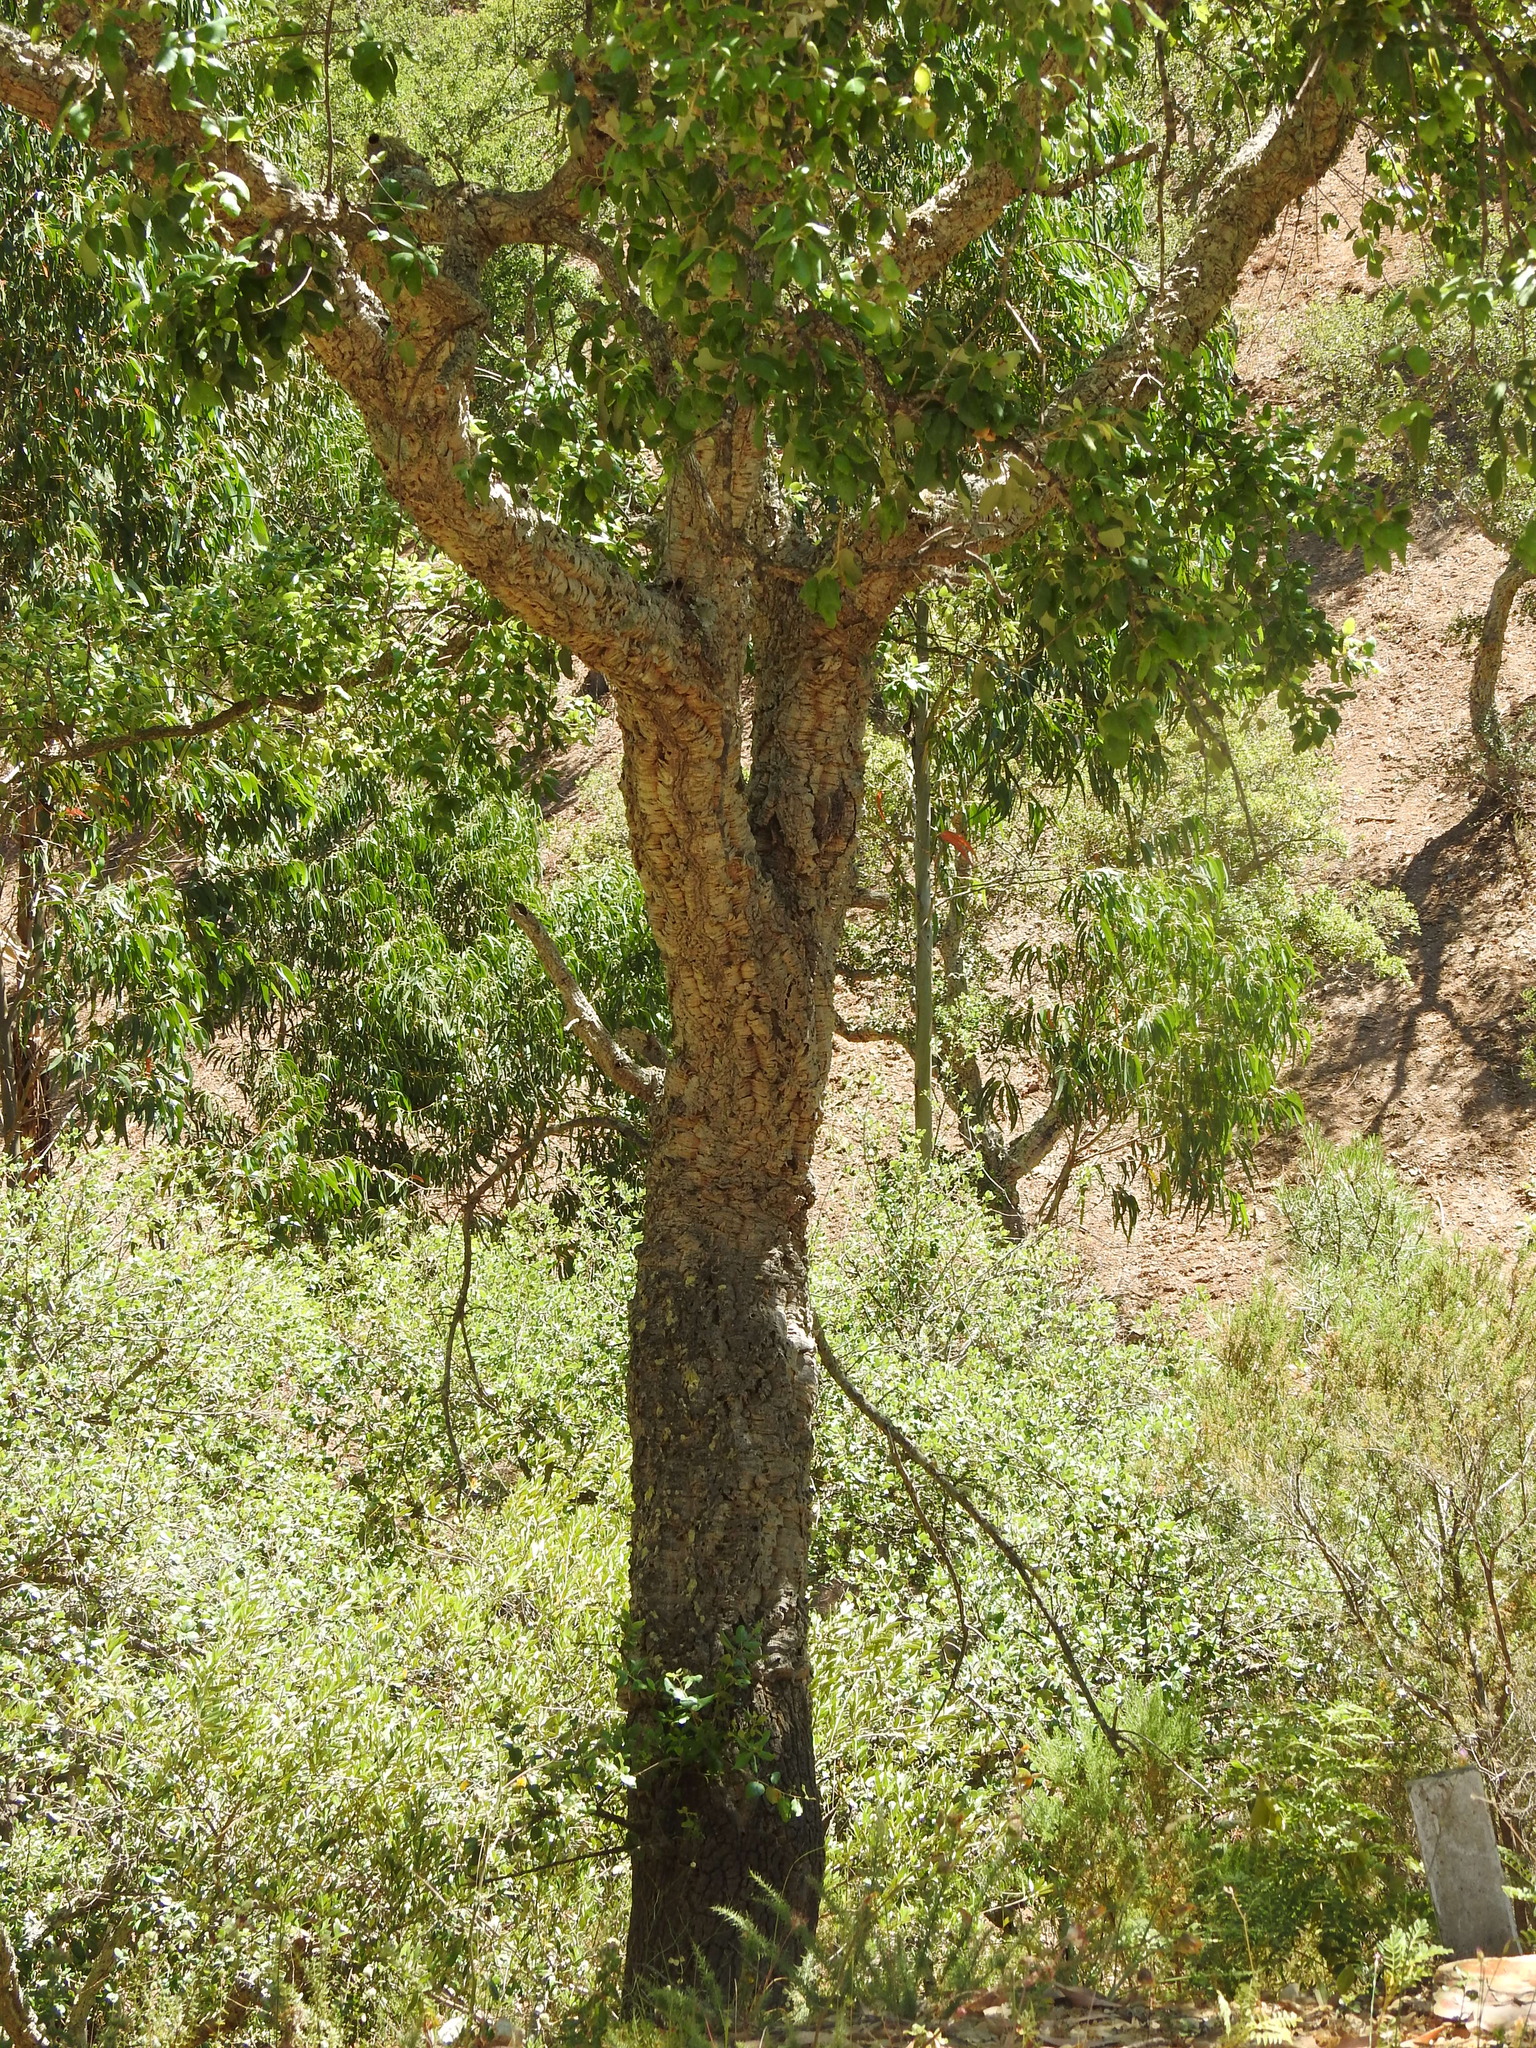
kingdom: Plantae
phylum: Tracheophyta
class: Magnoliopsida
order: Fagales
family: Fagaceae
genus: Quercus
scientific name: Quercus suber
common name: Cork oak
